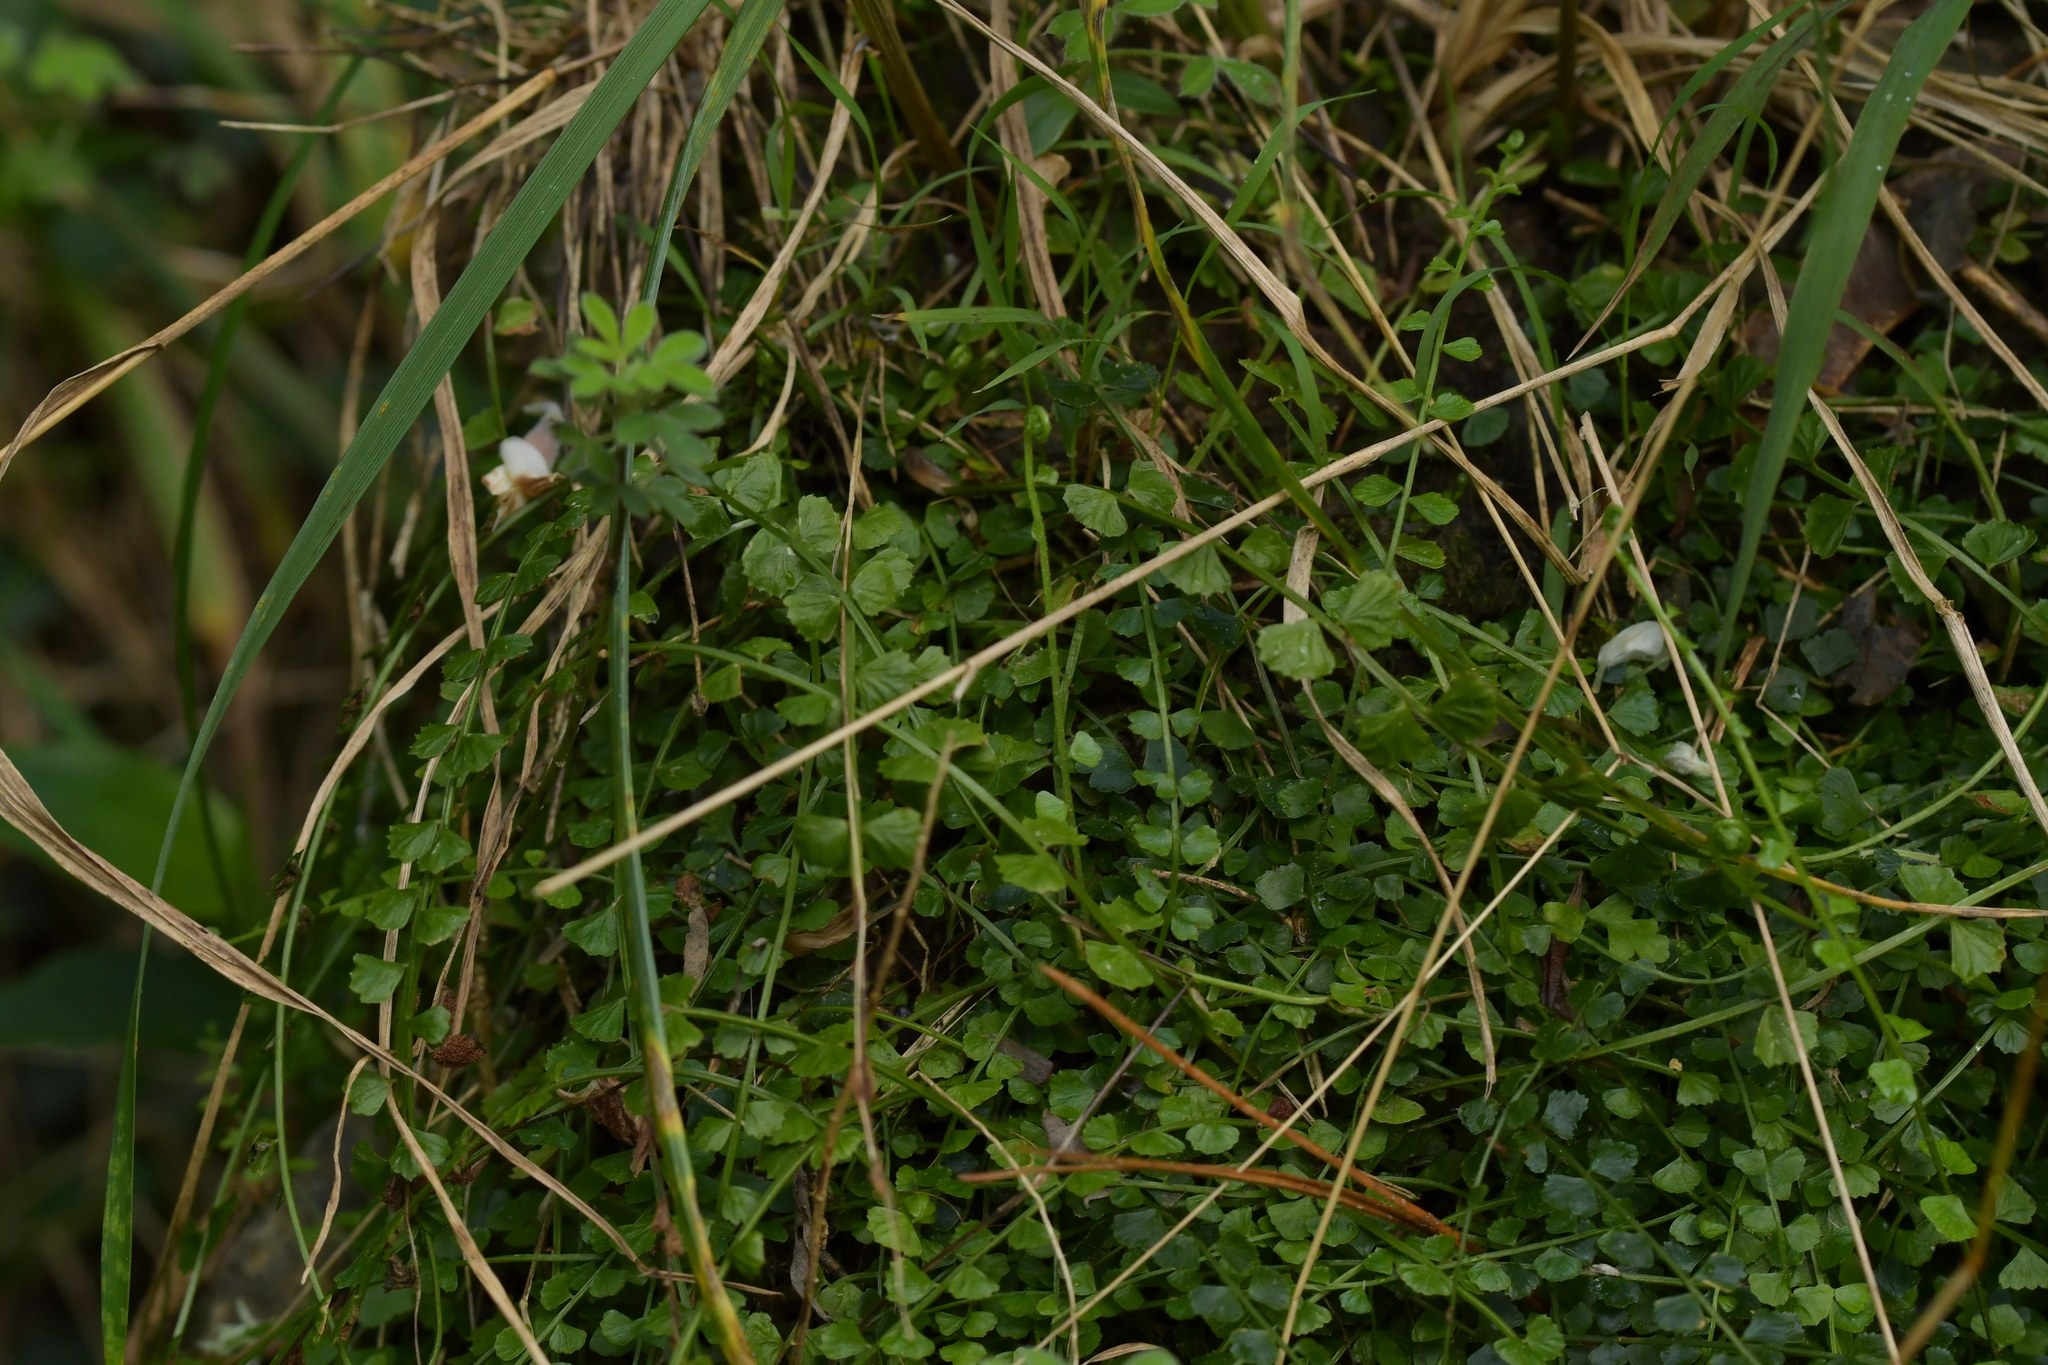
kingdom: Plantae
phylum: Tracheophyta
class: Polypodiopsida
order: Polypodiales
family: Aspleniaceae
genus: Asplenium
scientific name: Asplenium flabellifolium
